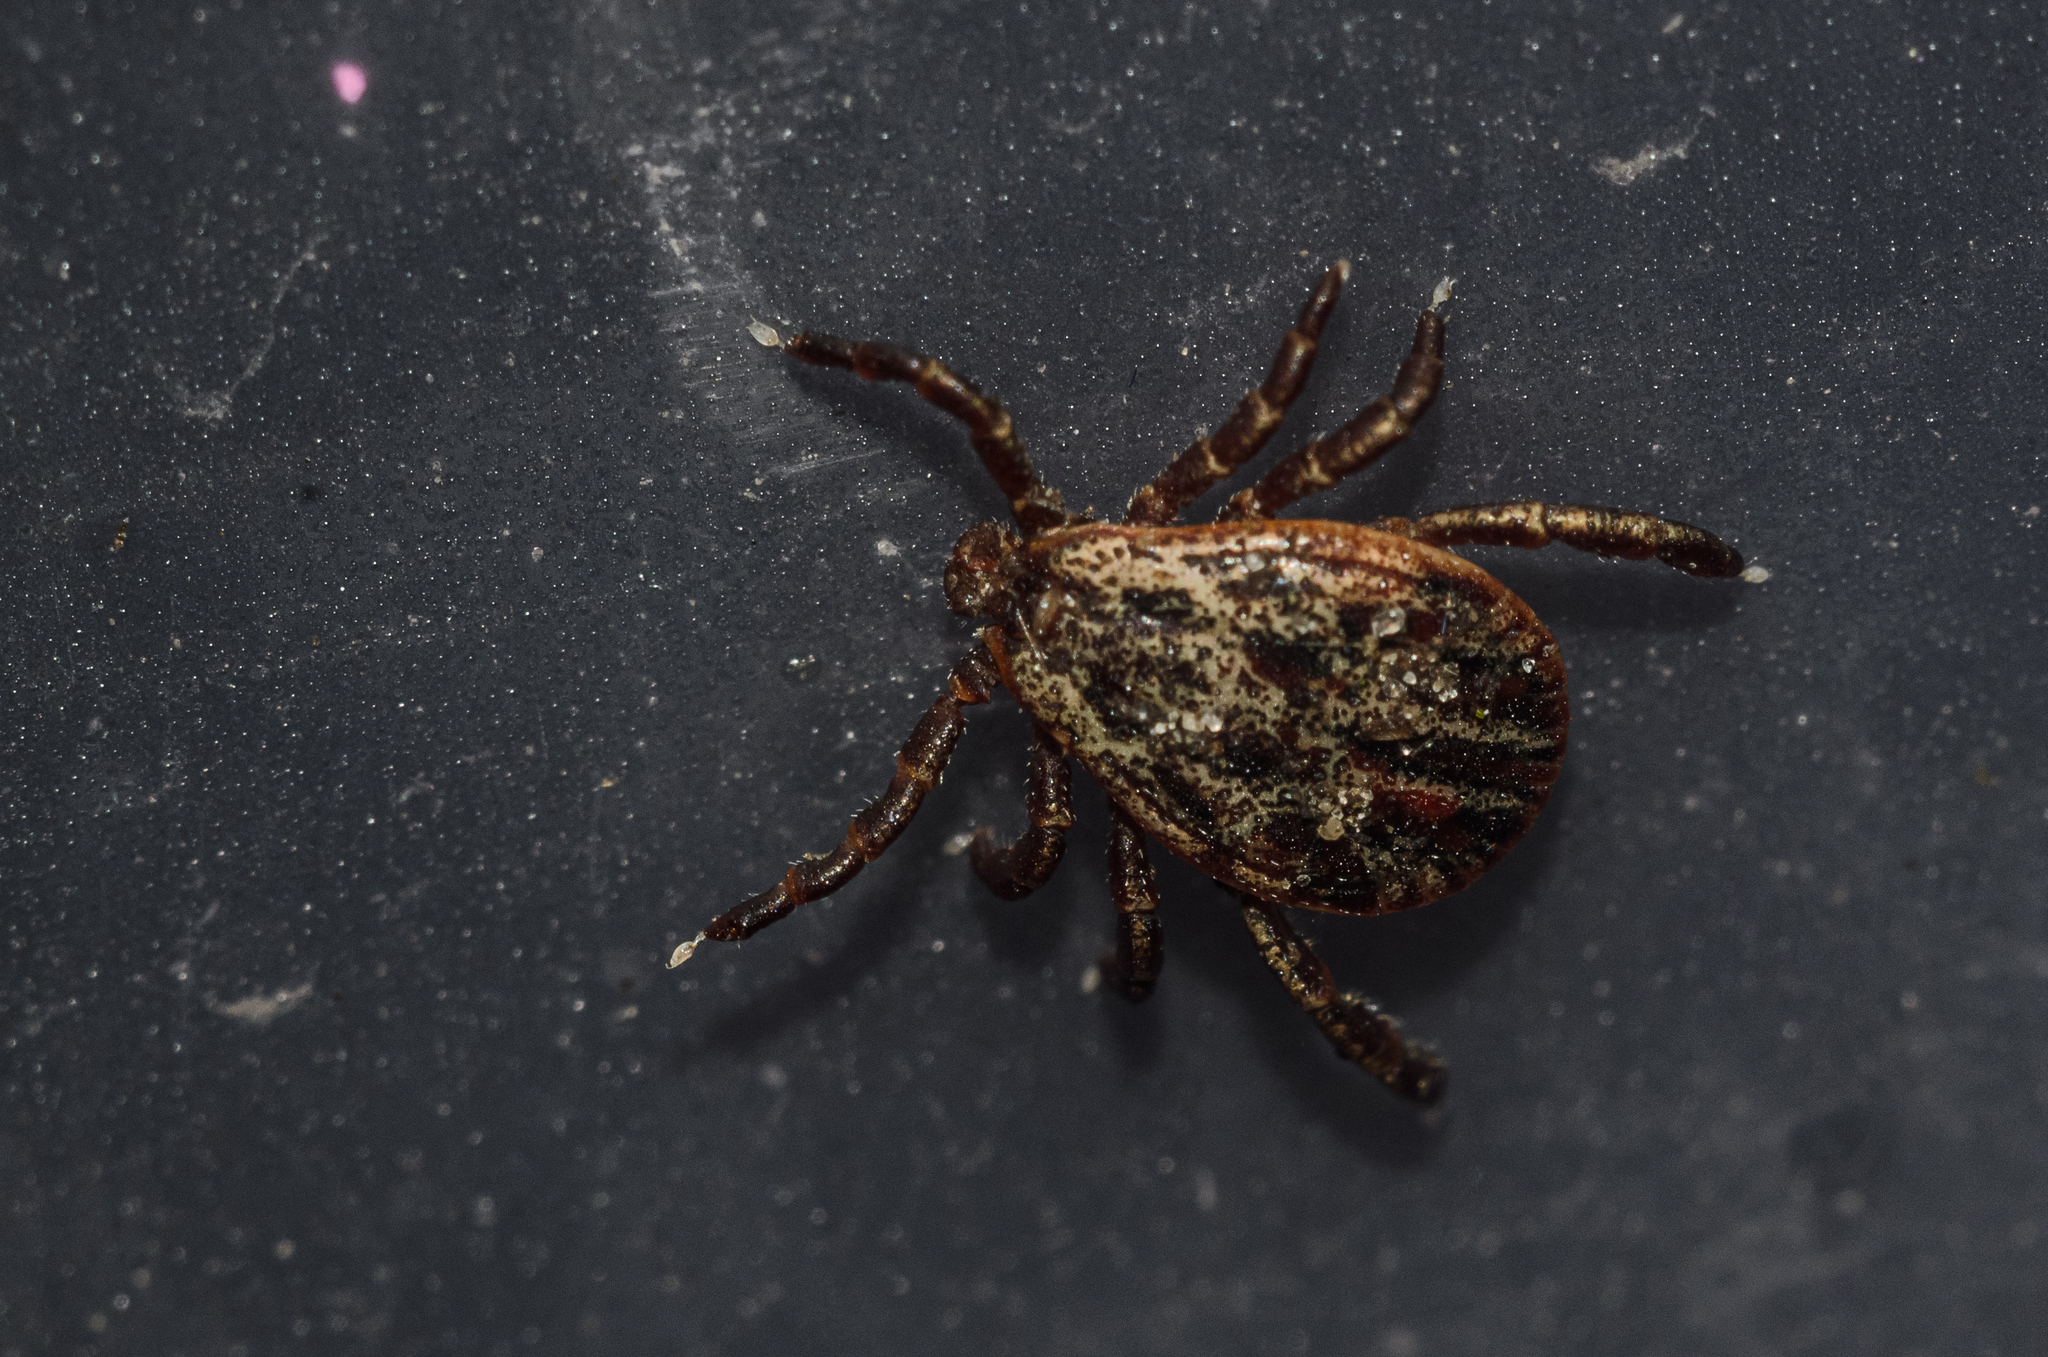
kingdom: Animalia
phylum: Arthropoda
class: Arachnida
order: Ixodida
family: Ixodidae
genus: Dermacentor
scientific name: Dermacentor reticulatus
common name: Ornate cow tick
